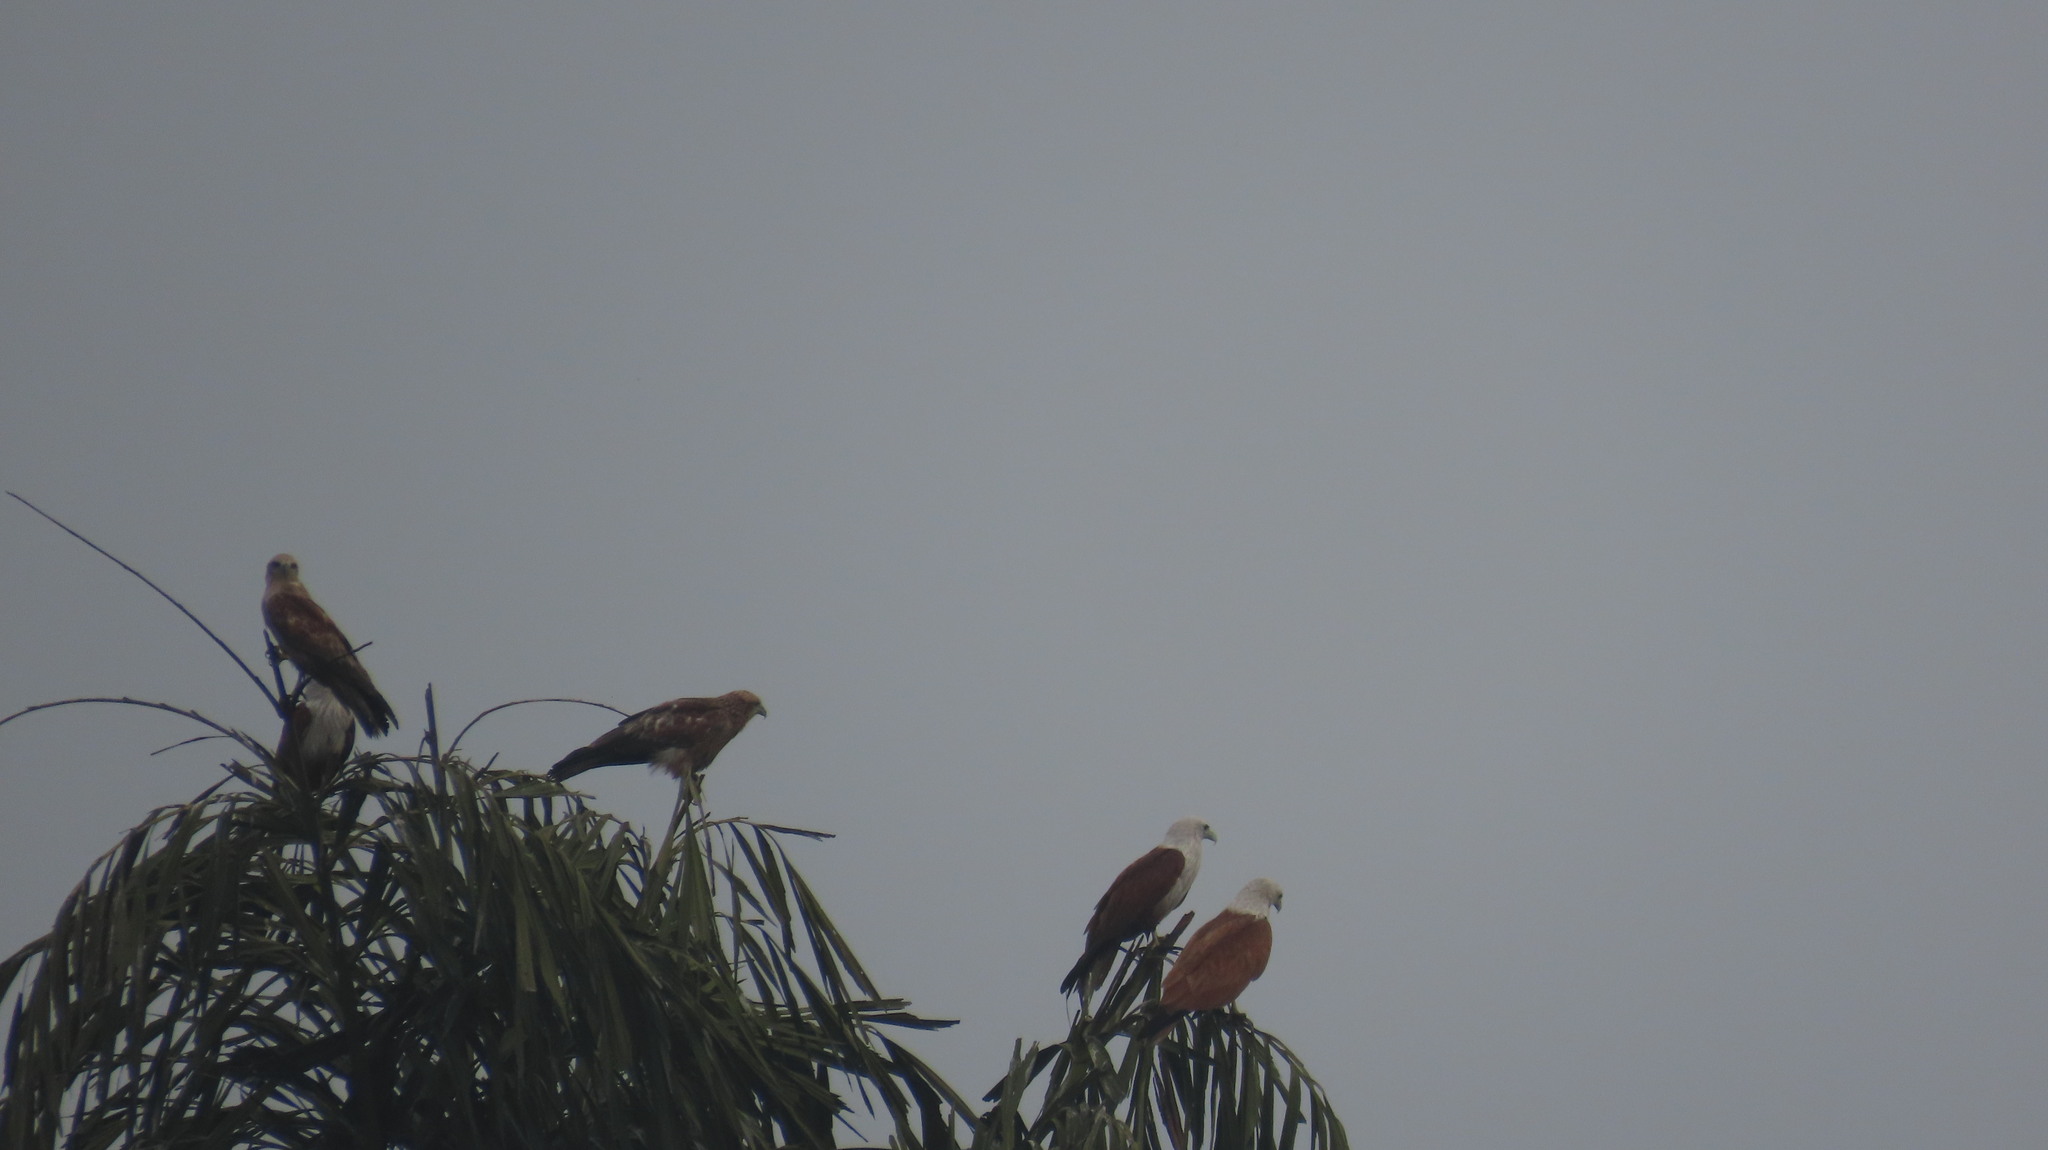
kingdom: Animalia
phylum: Chordata
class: Aves
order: Accipitriformes
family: Accipitridae
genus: Haliastur
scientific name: Haliastur indus
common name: Brahminy kite
